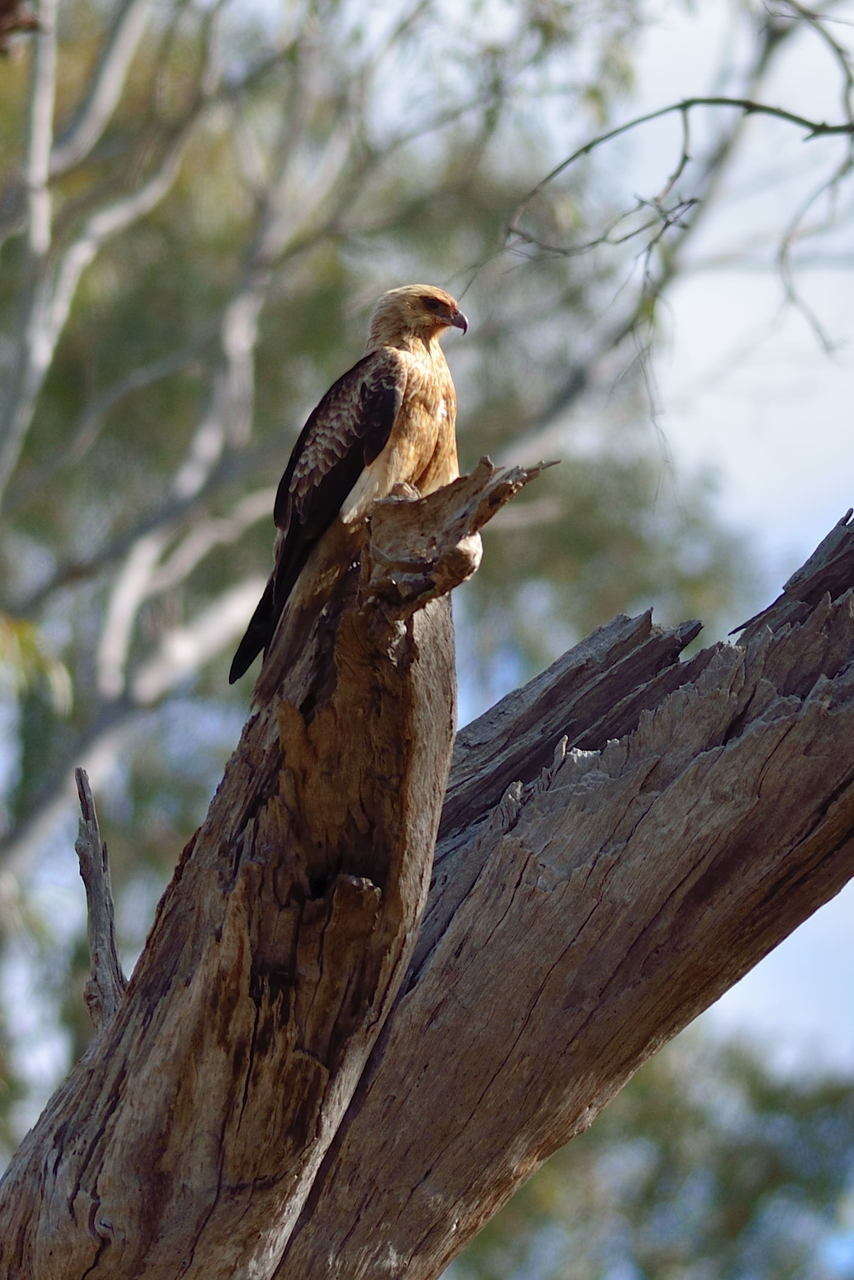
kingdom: Animalia
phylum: Chordata
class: Aves
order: Accipitriformes
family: Accipitridae
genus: Haliastur
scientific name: Haliastur sphenurus
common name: Whistling kite
